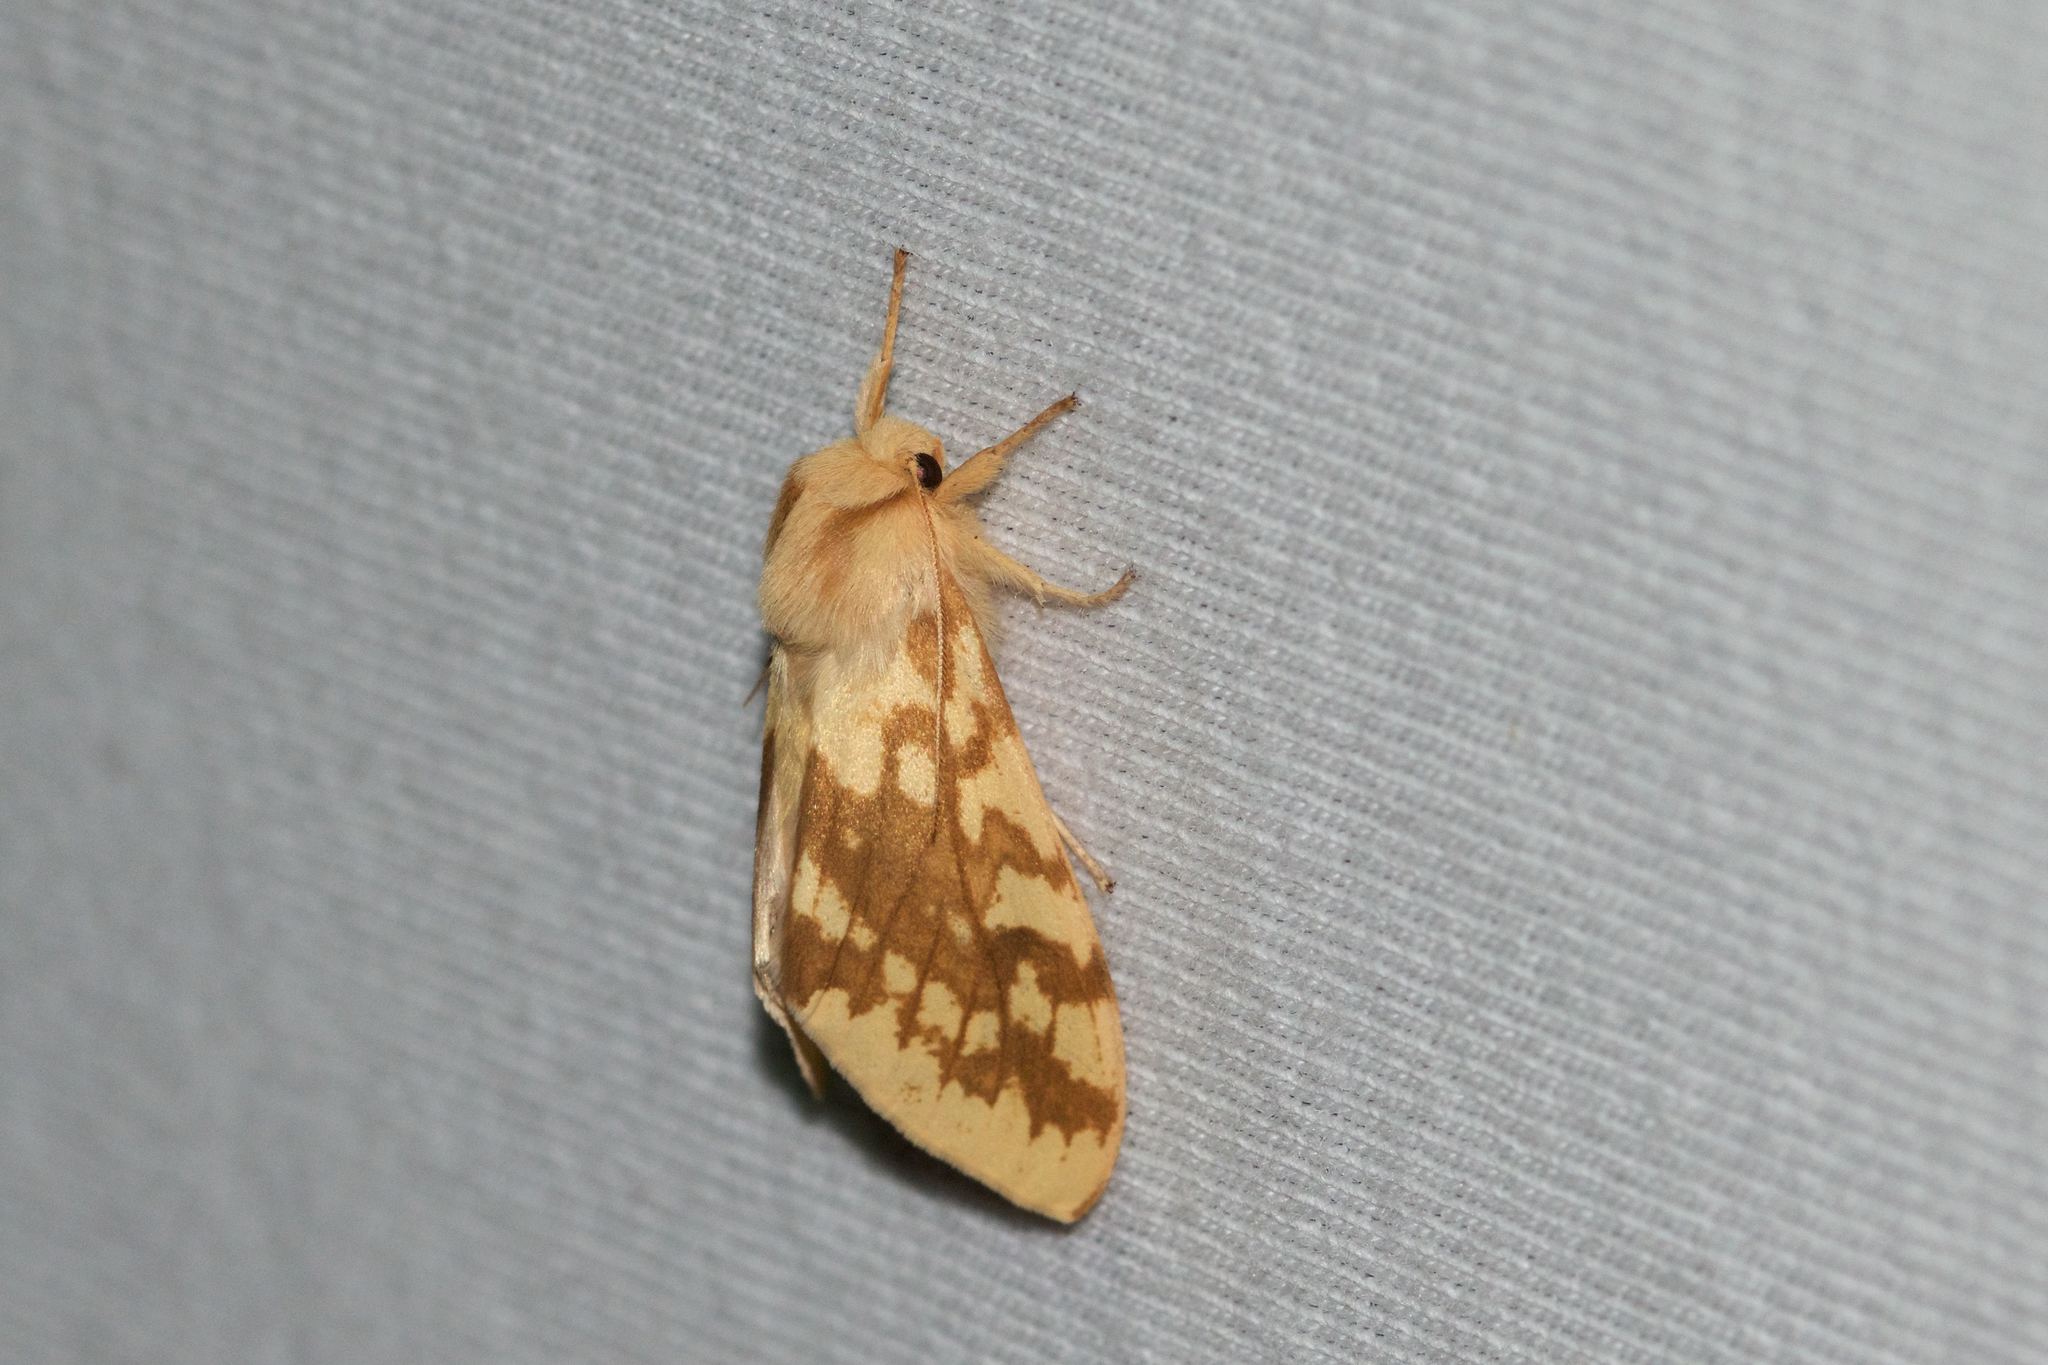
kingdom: Animalia
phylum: Arthropoda
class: Insecta
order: Lepidoptera
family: Erebidae
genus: Lophocampa
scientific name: Lophocampa maculata
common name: Spotted tussock moth
